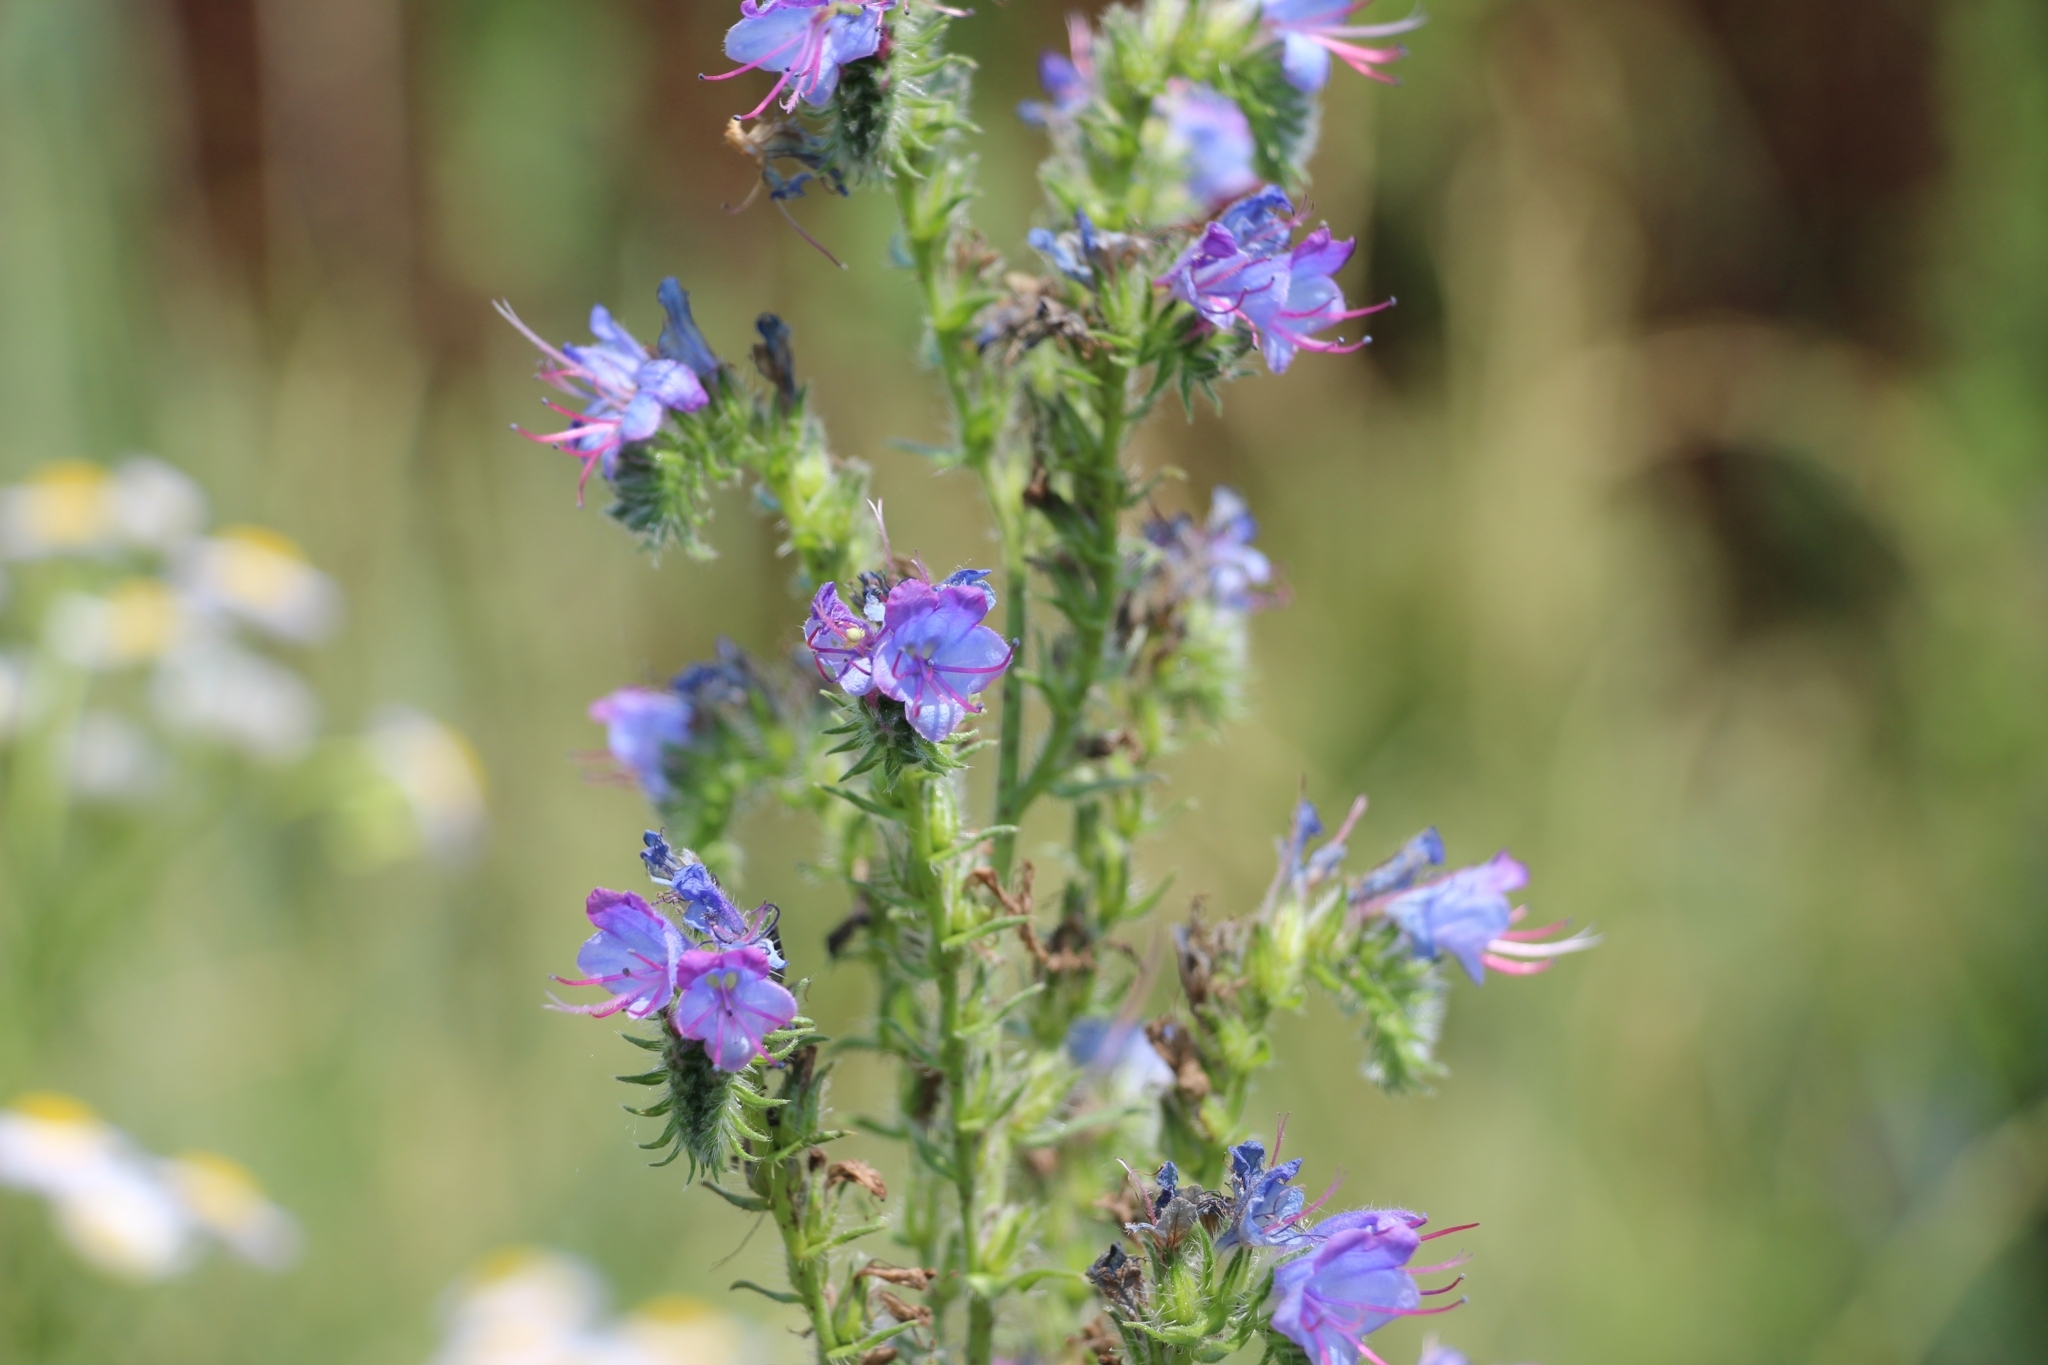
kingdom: Plantae
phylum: Tracheophyta
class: Magnoliopsida
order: Boraginales
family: Boraginaceae
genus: Echium
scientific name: Echium vulgare
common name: Common viper's bugloss
